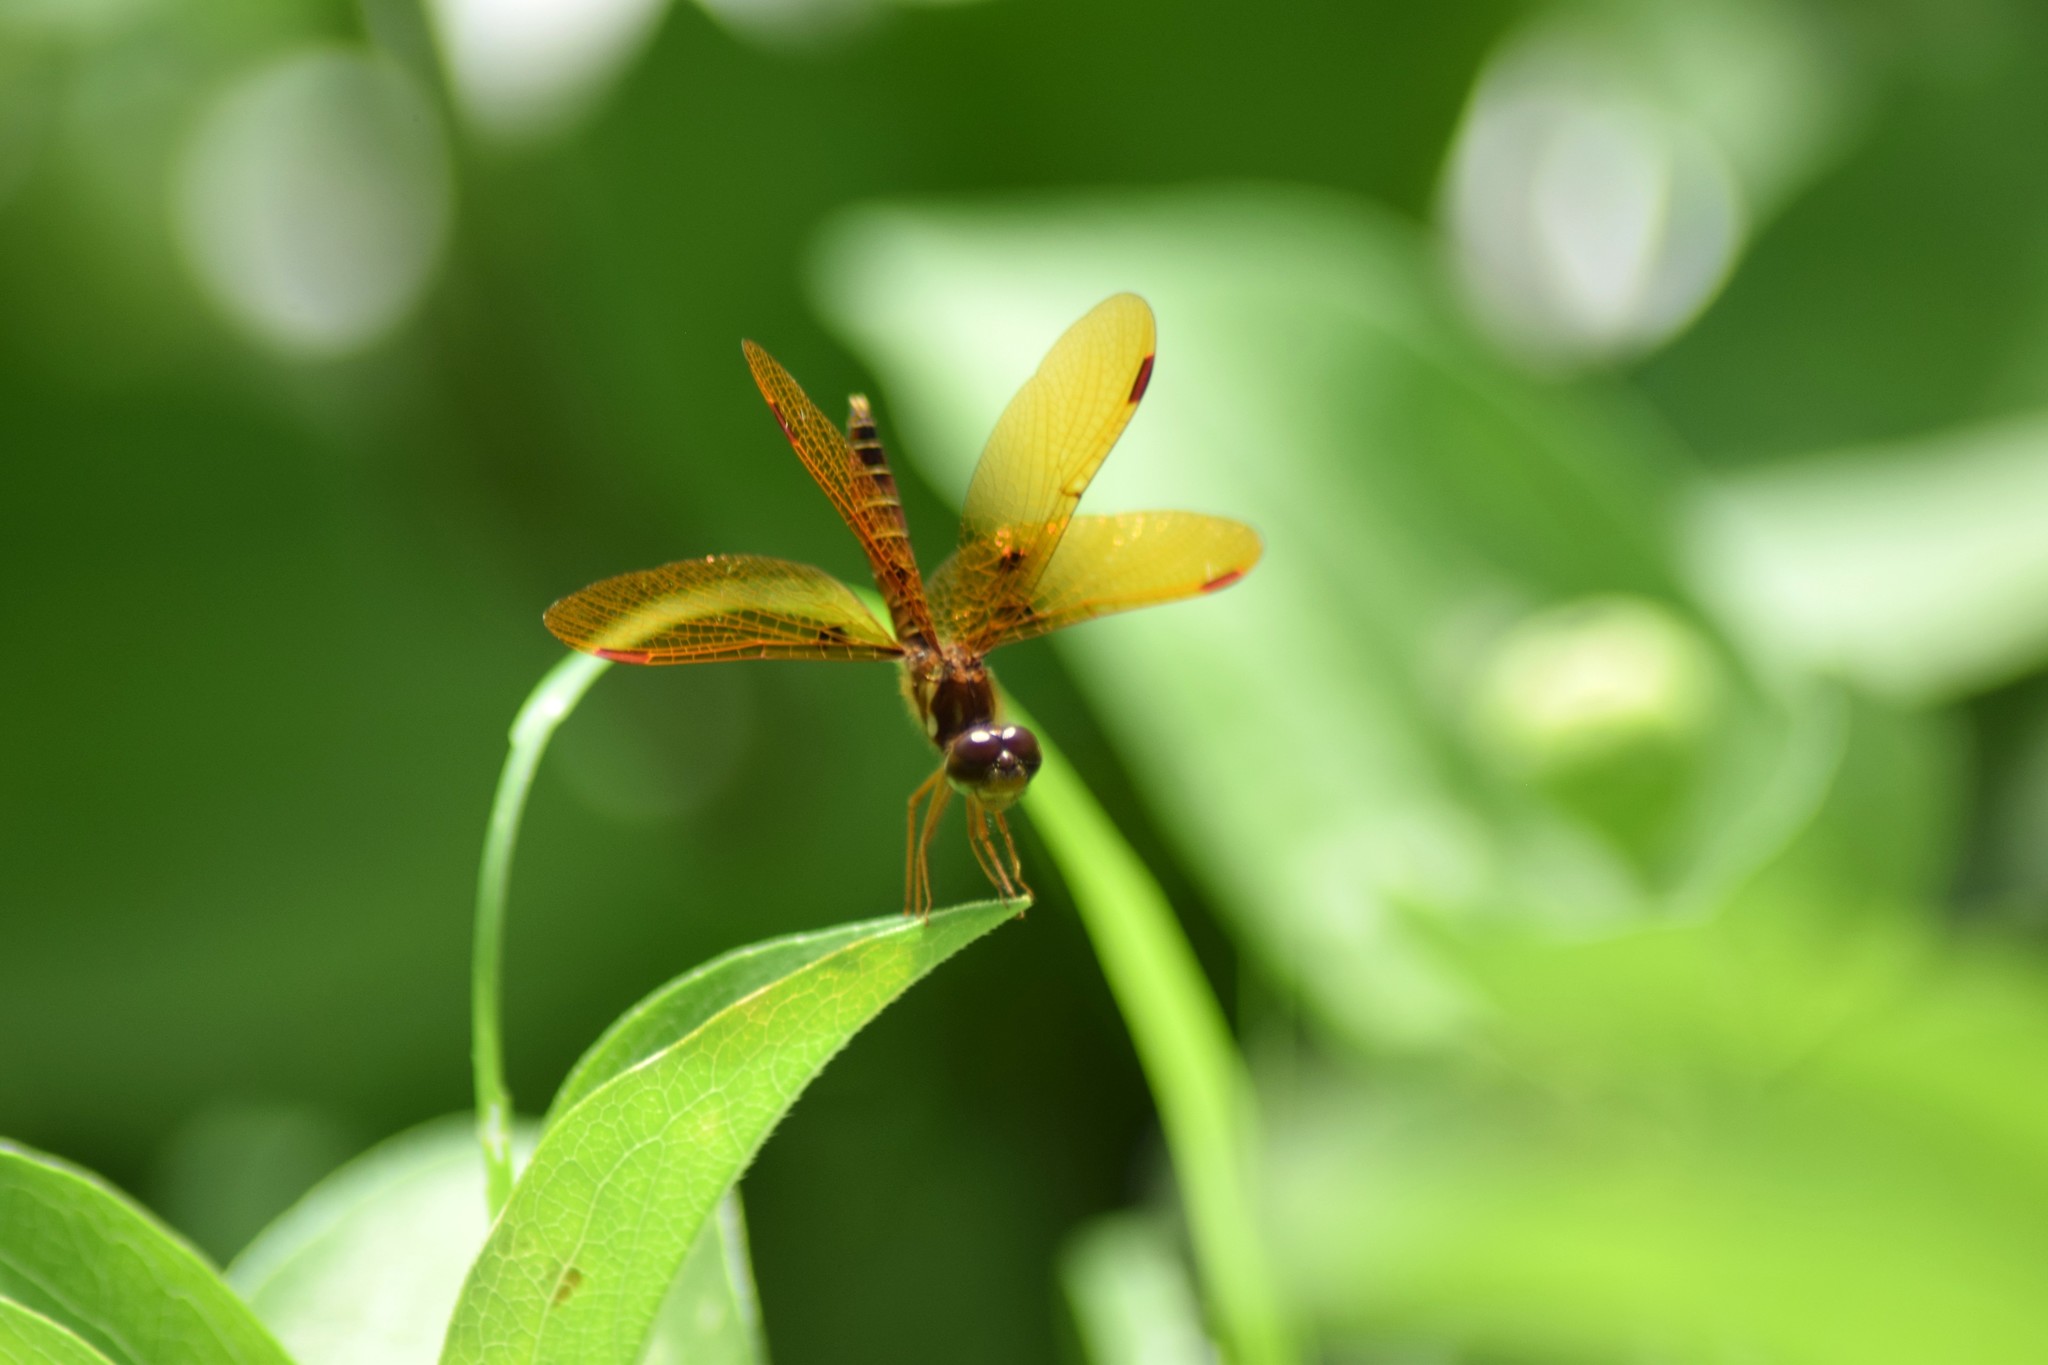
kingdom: Animalia
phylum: Arthropoda
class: Insecta
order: Odonata
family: Libellulidae
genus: Perithemis
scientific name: Perithemis tenera
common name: Eastern amberwing
